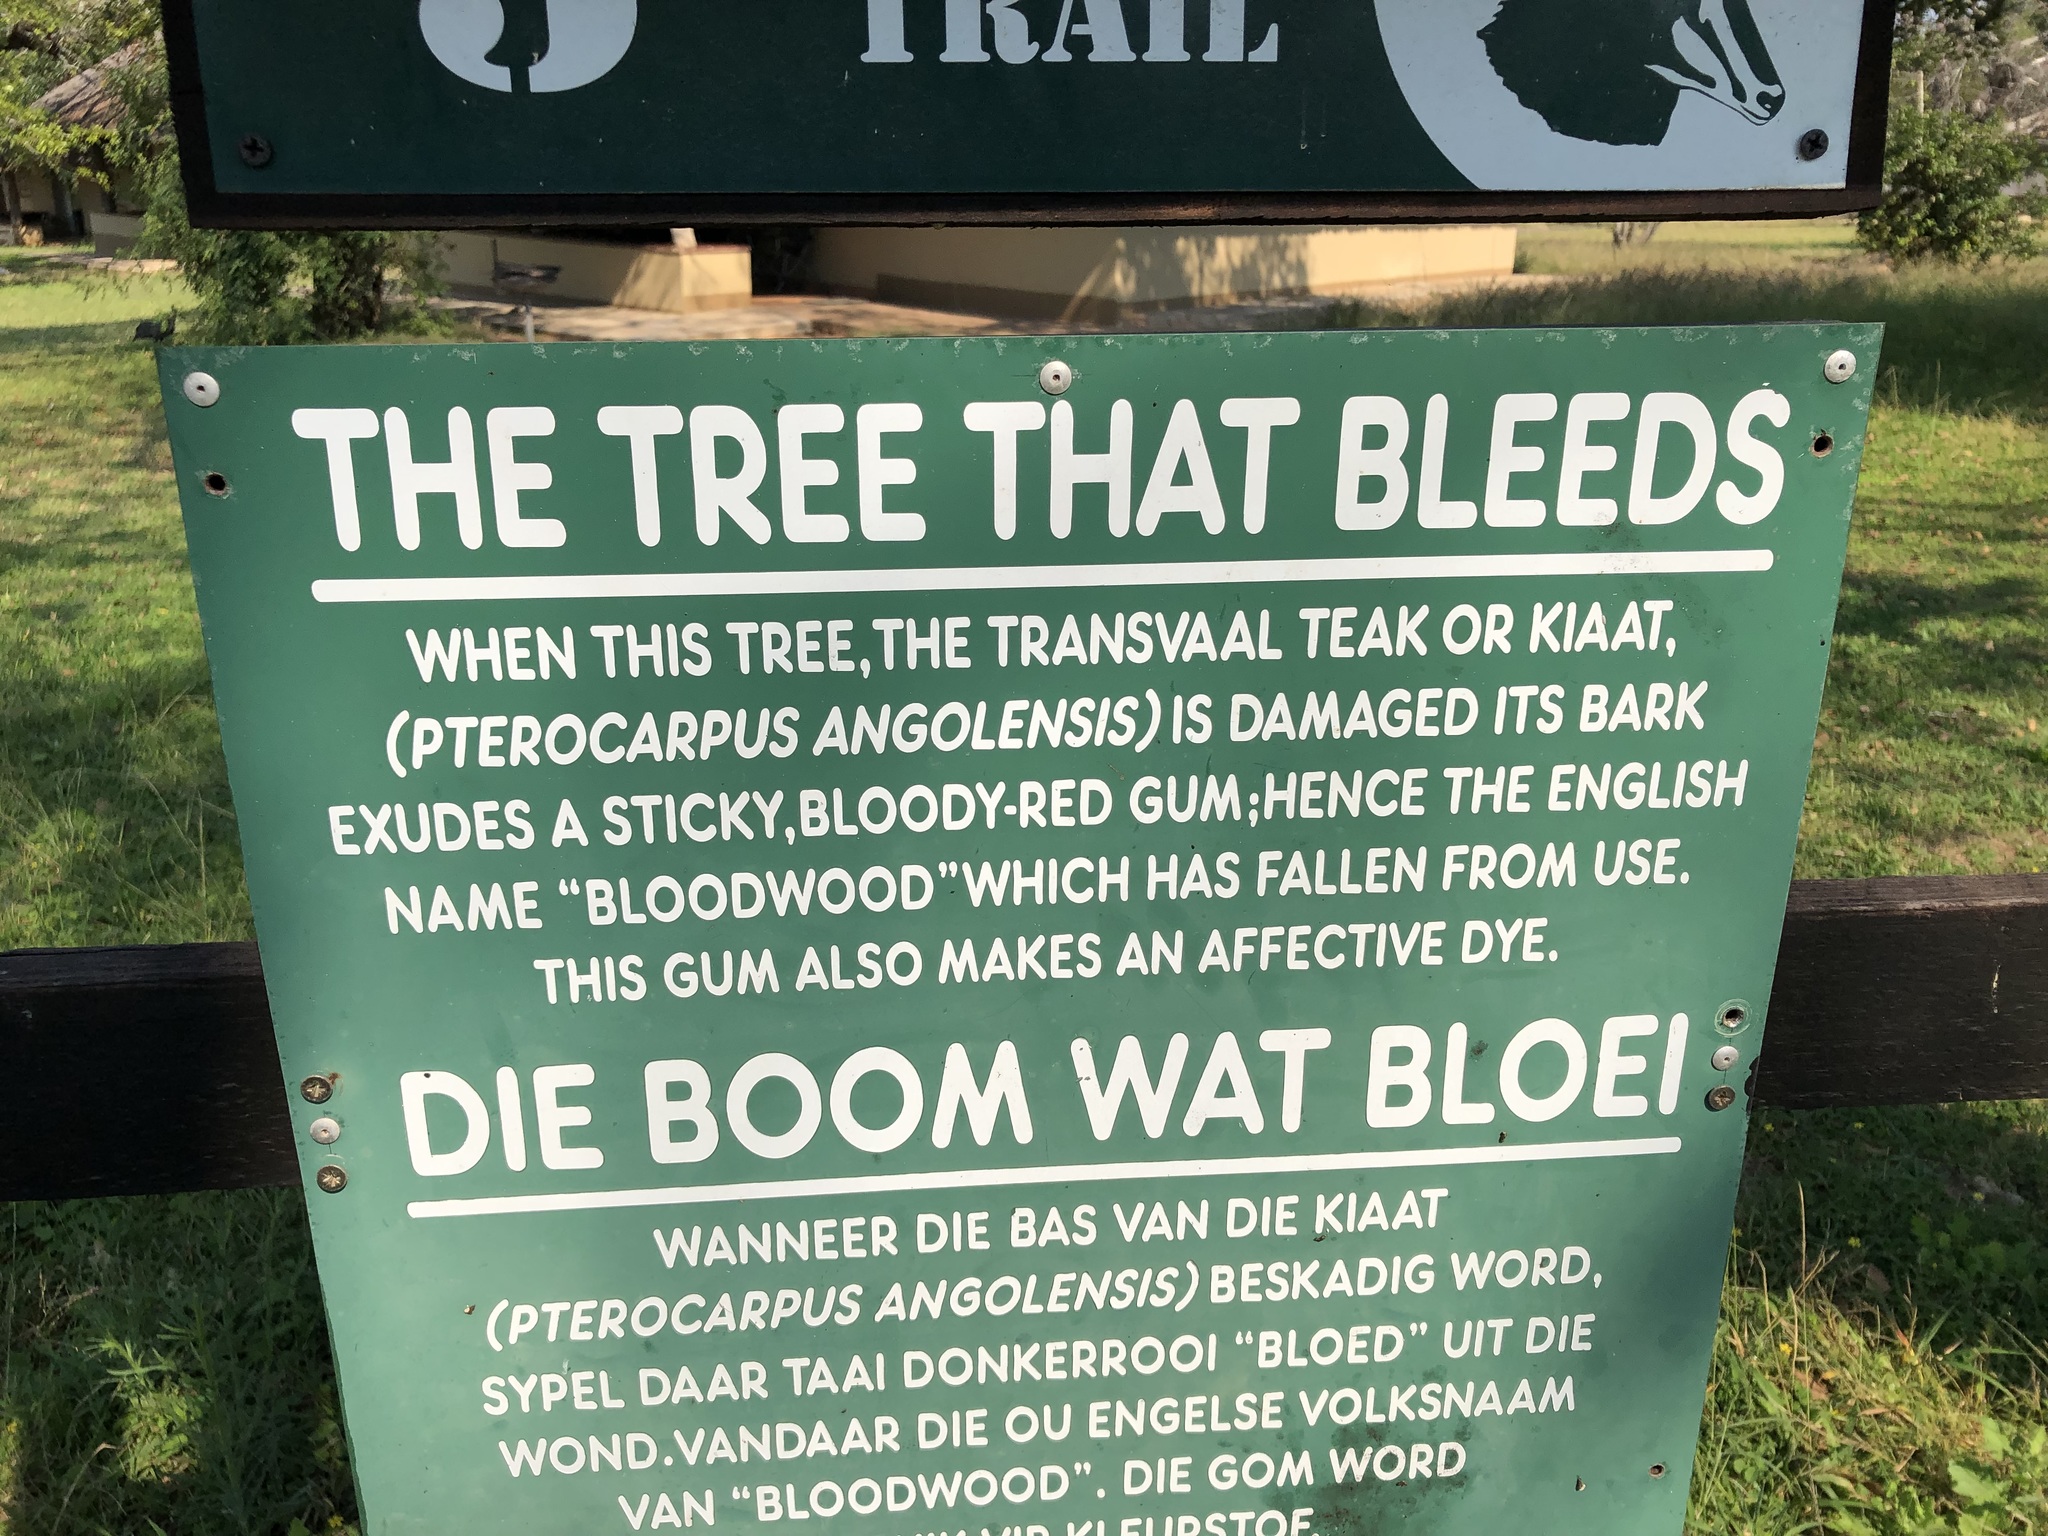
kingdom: Plantae
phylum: Tracheophyta
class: Magnoliopsida
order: Fabales
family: Fabaceae
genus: Pterocarpus
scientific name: Pterocarpus angolensis
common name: Bloodwood tree
